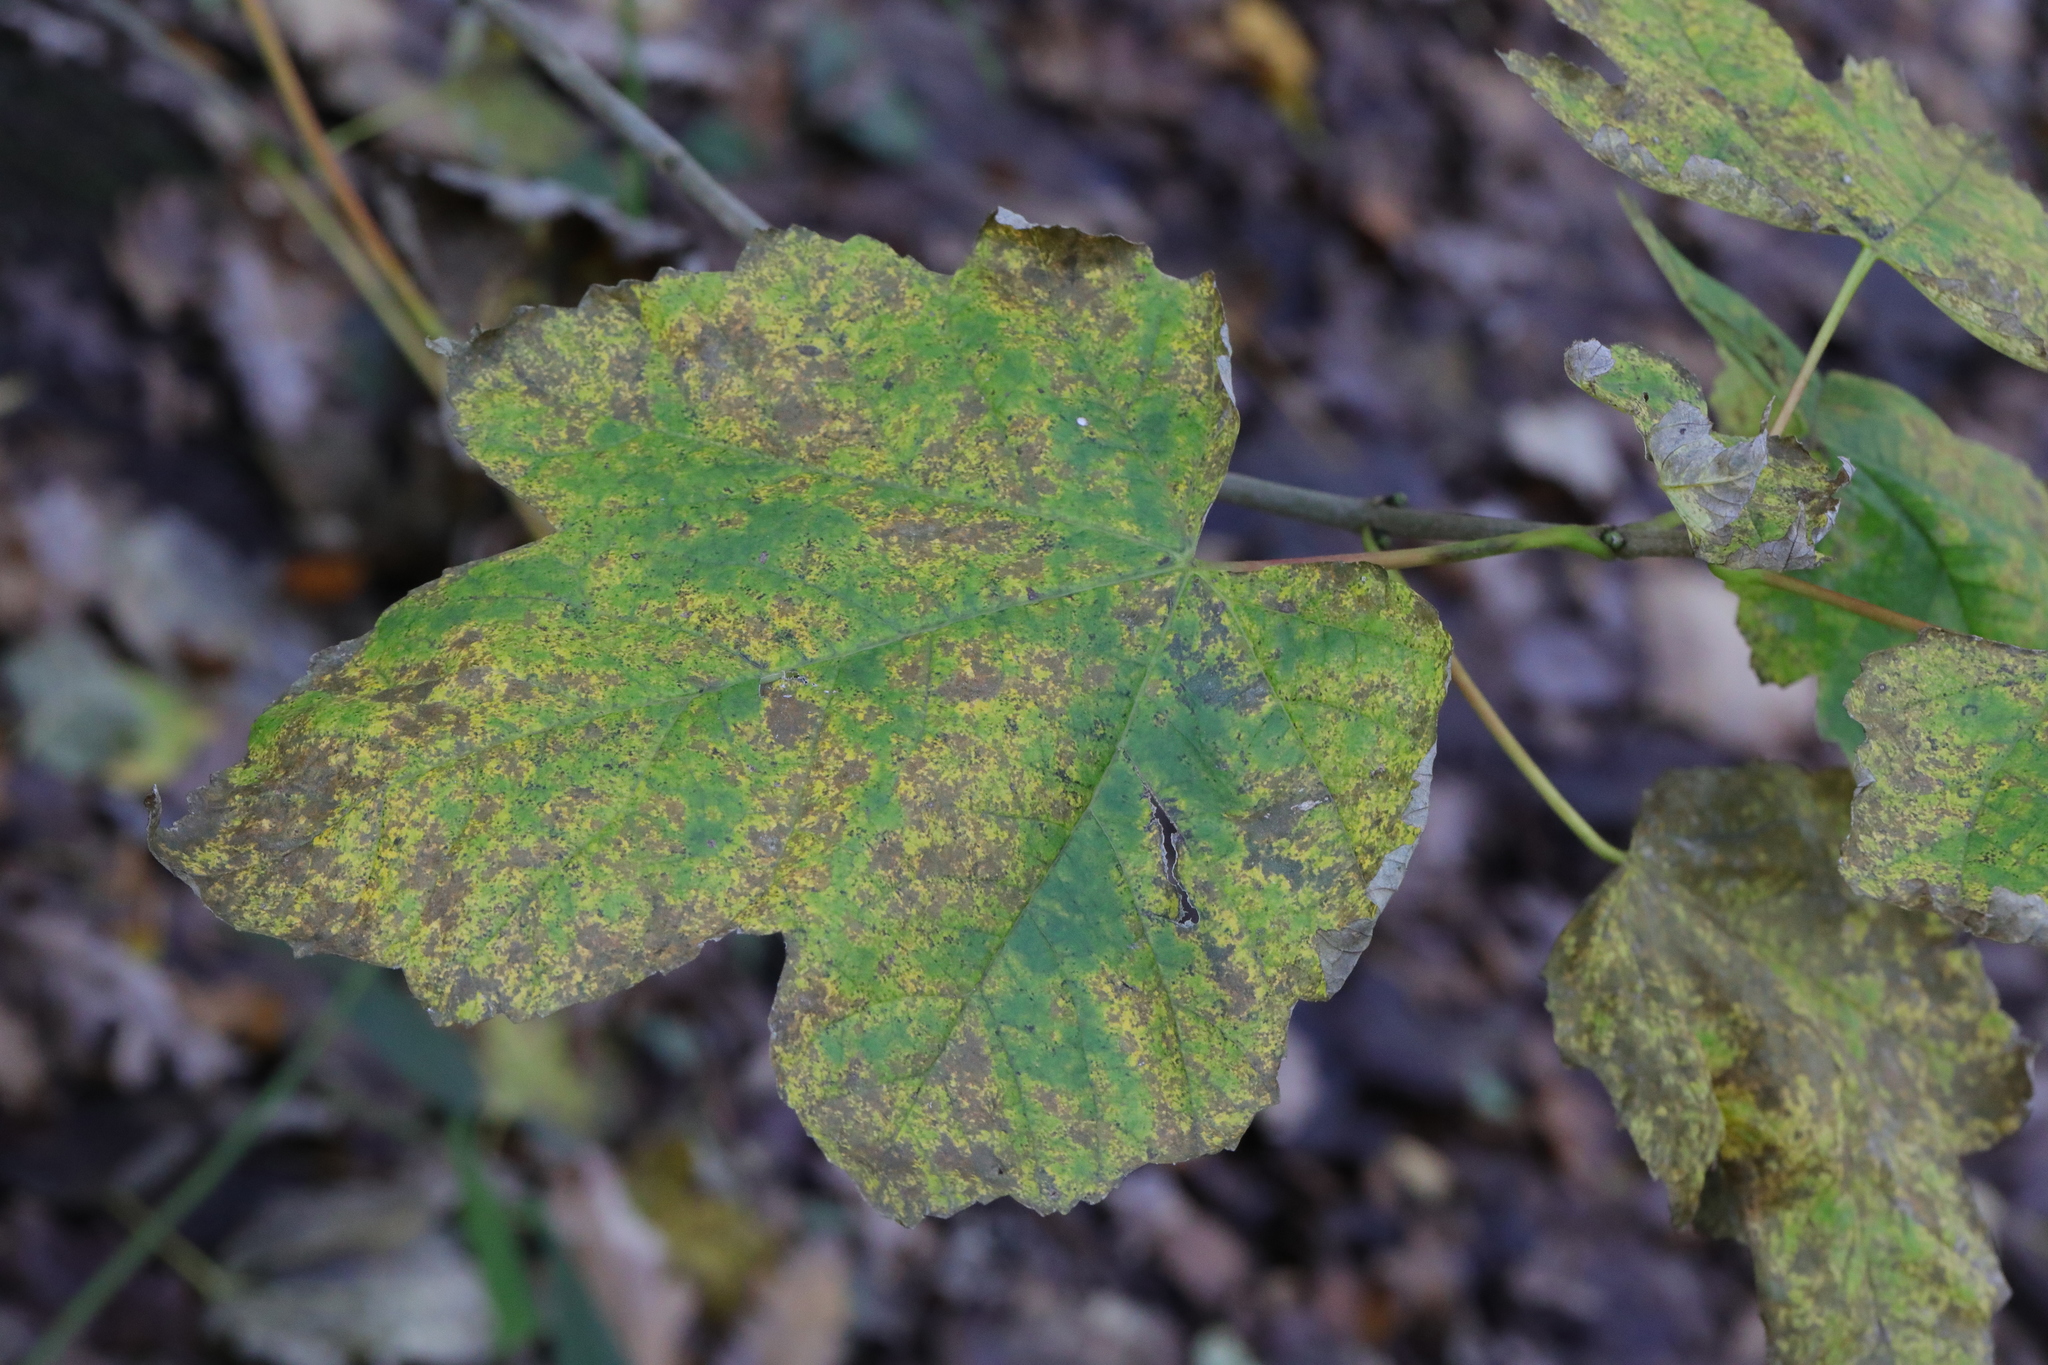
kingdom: Plantae
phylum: Tracheophyta
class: Magnoliopsida
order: Sapindales
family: Sapindaceae
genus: Acer
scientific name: Acer pseudoplatanus
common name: Sycamore
